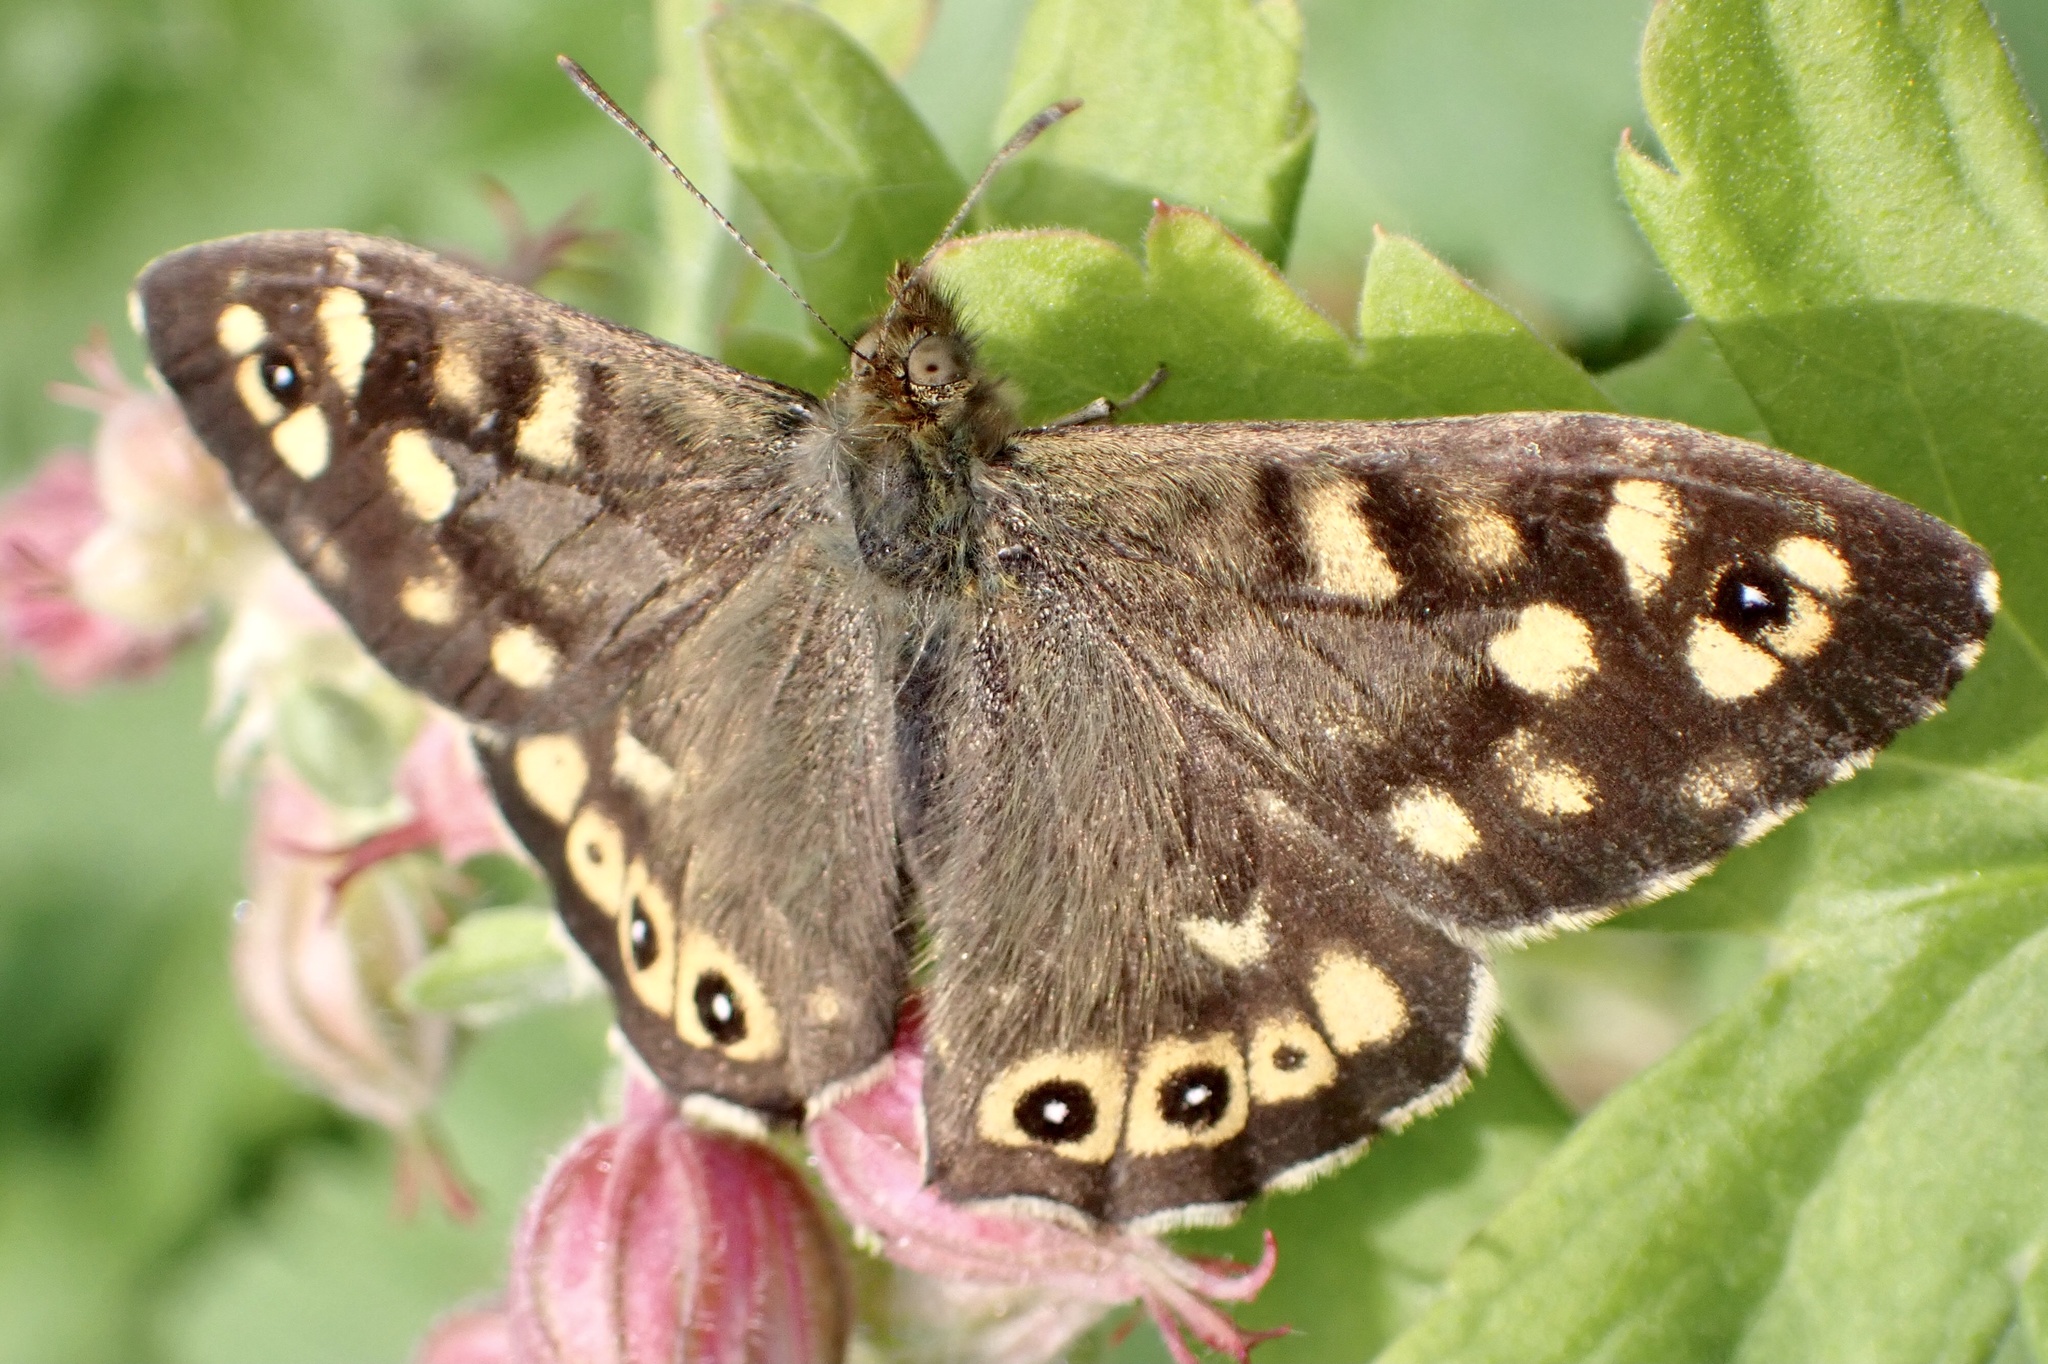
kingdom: Animalia
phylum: Arthropoda
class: Insecta
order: Lepidoptera
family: Nymphalidae
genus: Pararge
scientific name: Pararge aegeria
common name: Speckled wood
